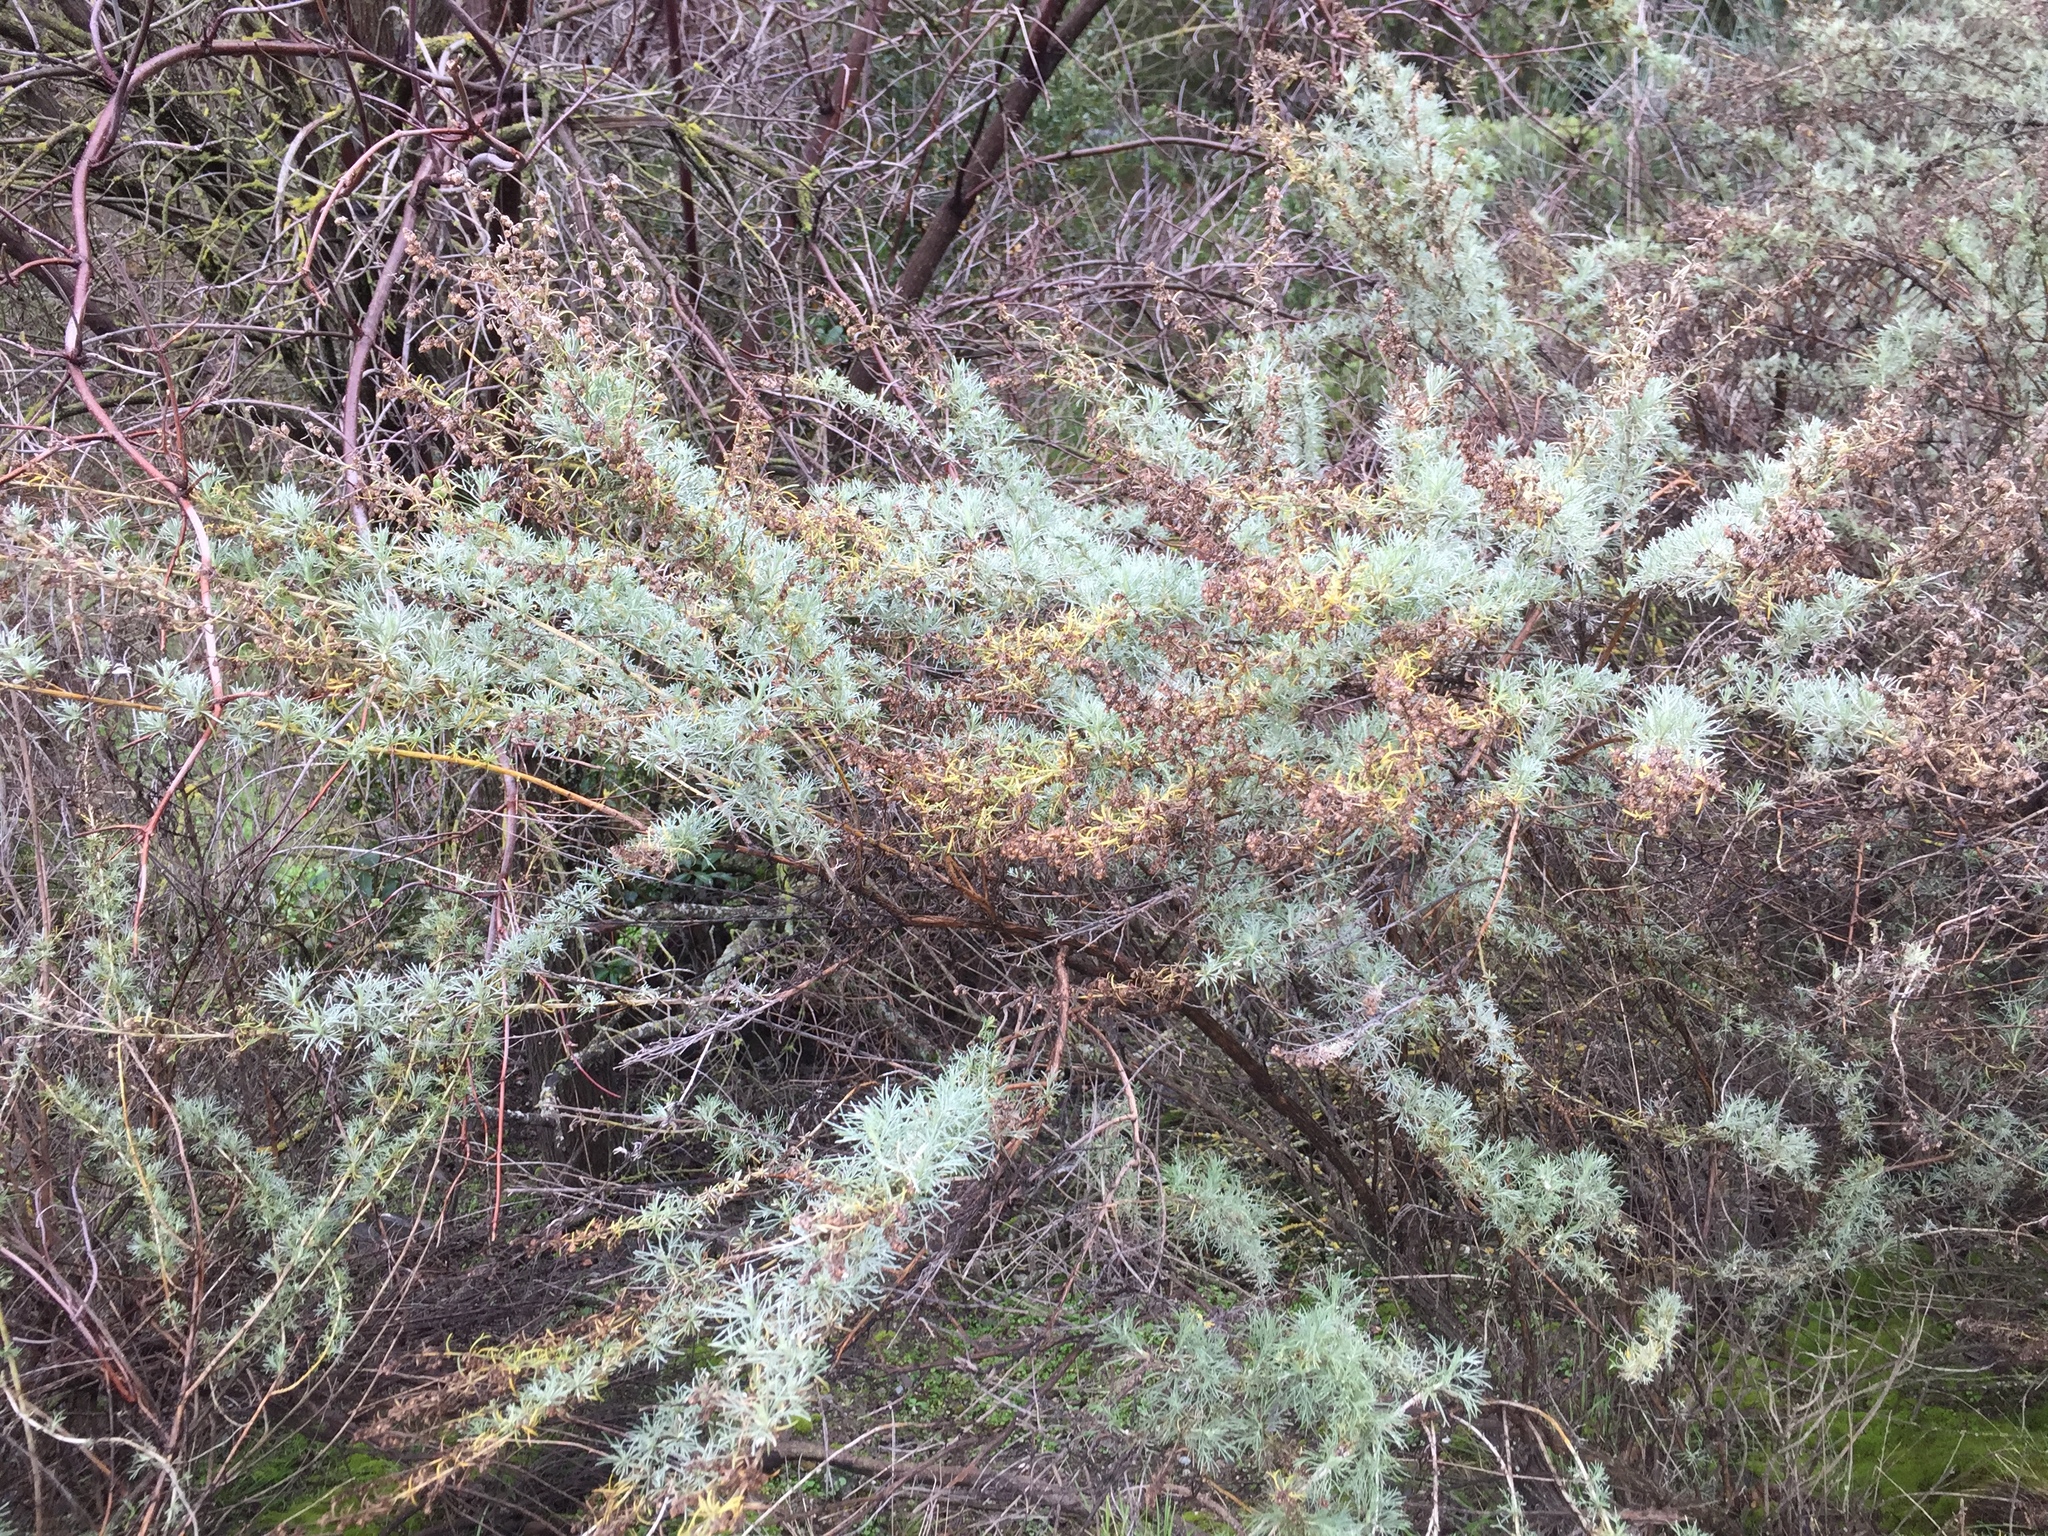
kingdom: Plantae
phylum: Tracheophyta
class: Magnoliopsida
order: Asterales
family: Asteraceae
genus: Artemisia
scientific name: Artemisia californica
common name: California sagebrush
